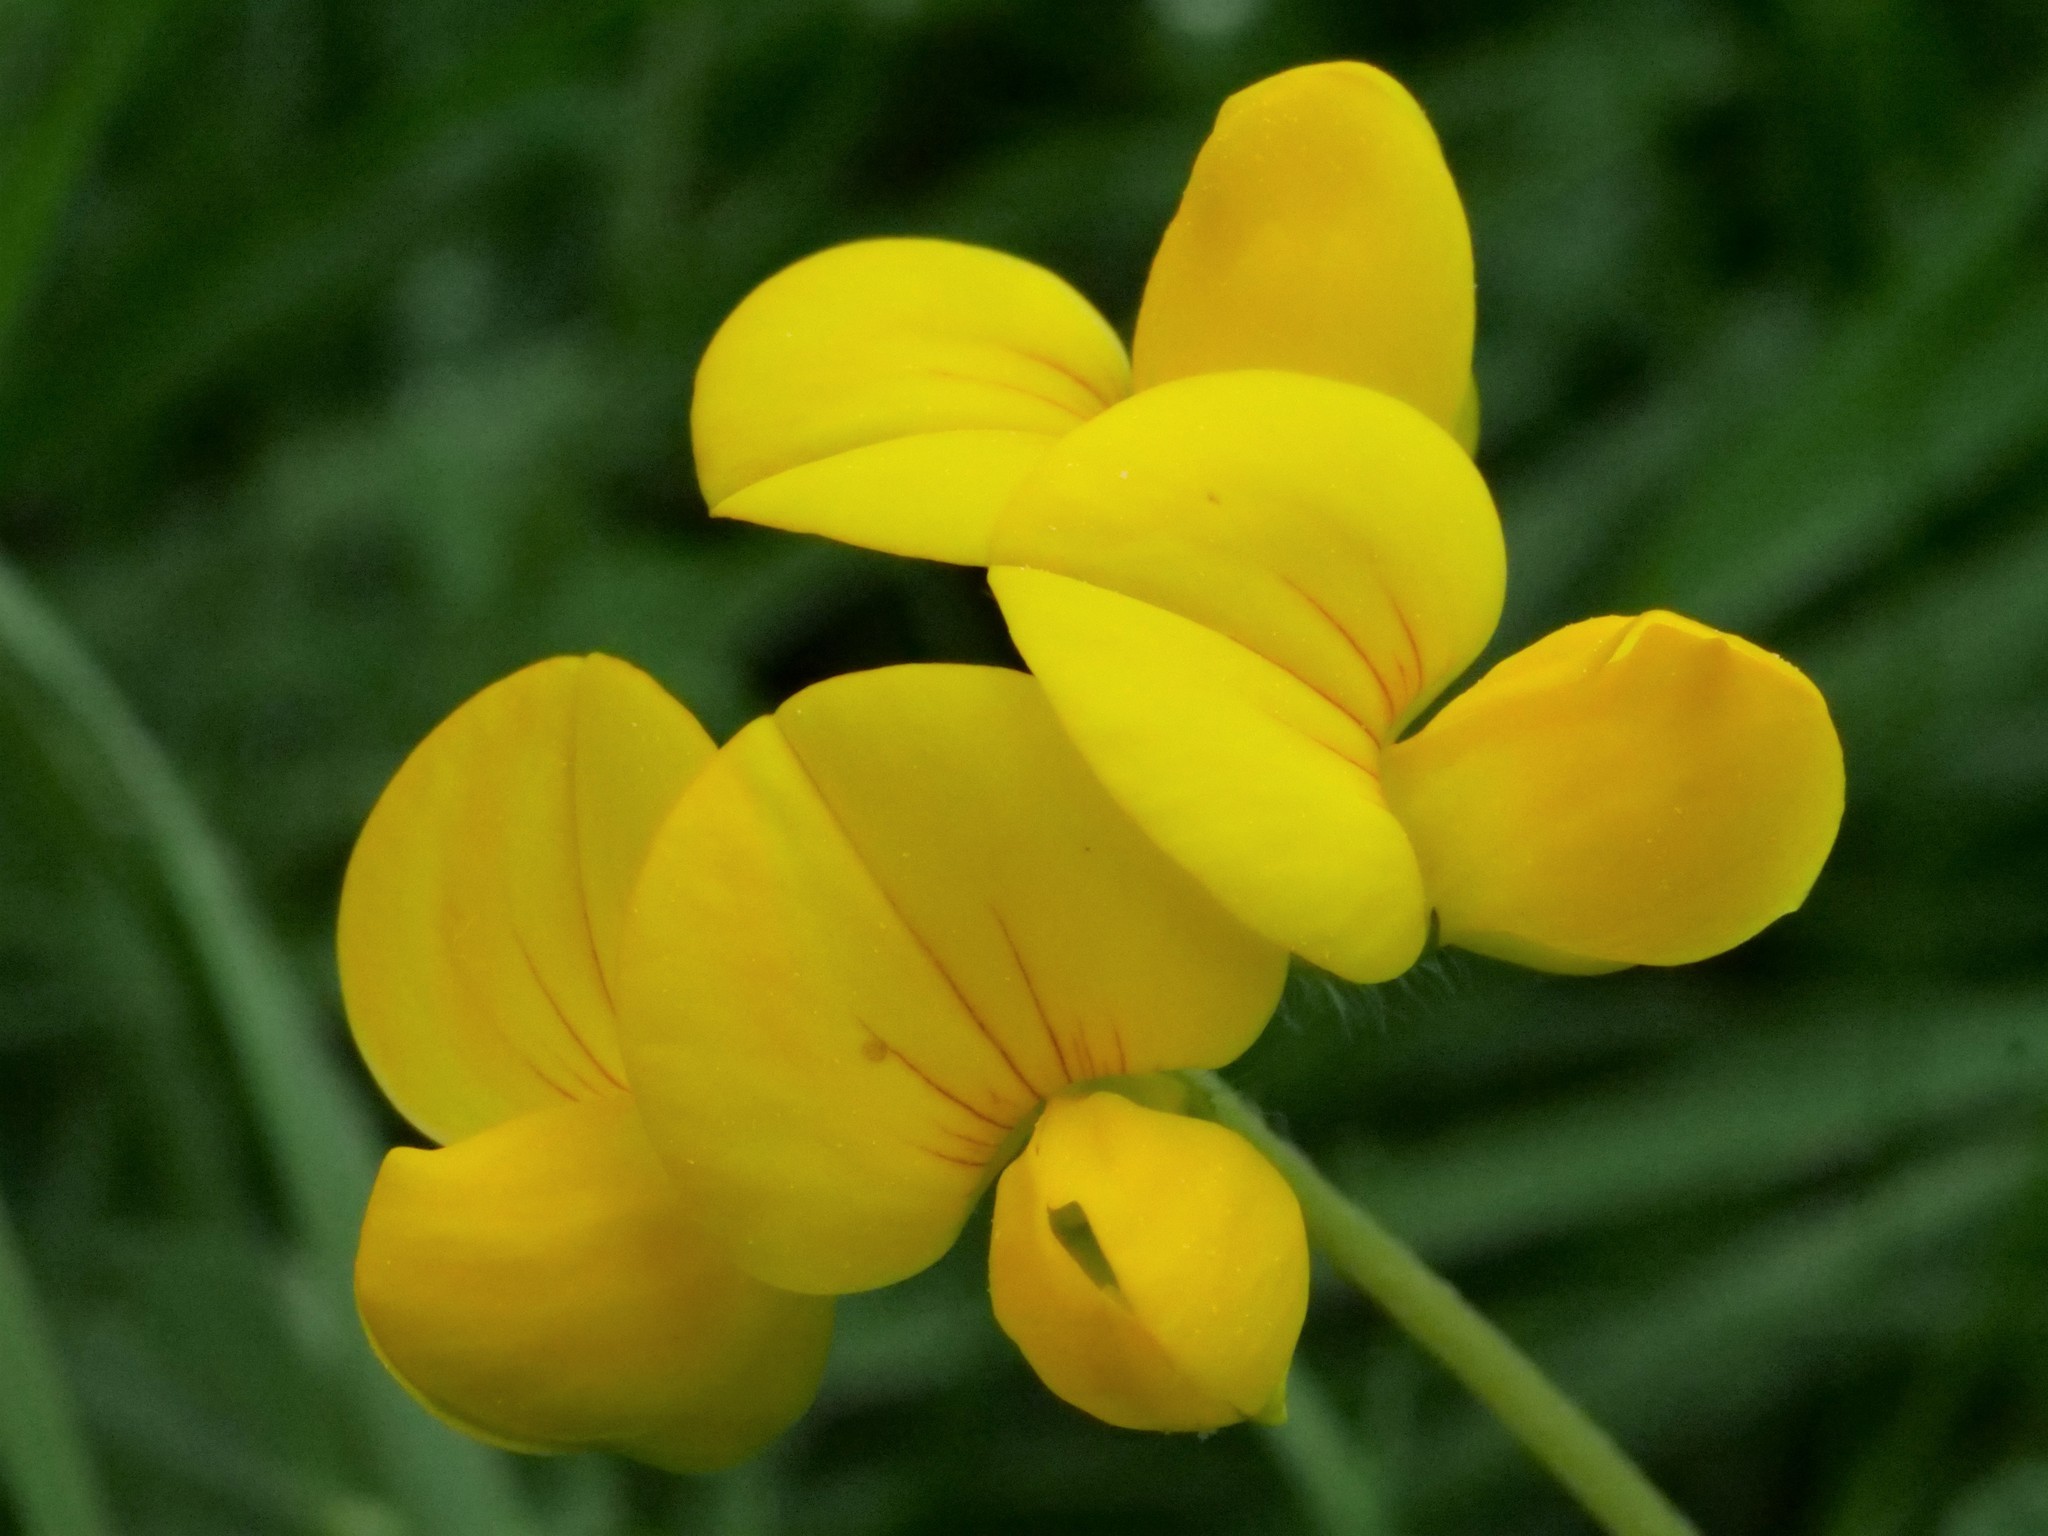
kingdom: Plantae
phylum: Tracheophyta
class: Magnoliopsida
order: Fabales
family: Fabaceae
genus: Lotus
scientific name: Lotus corniculatus
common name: Common bird's-foot-trefoil
